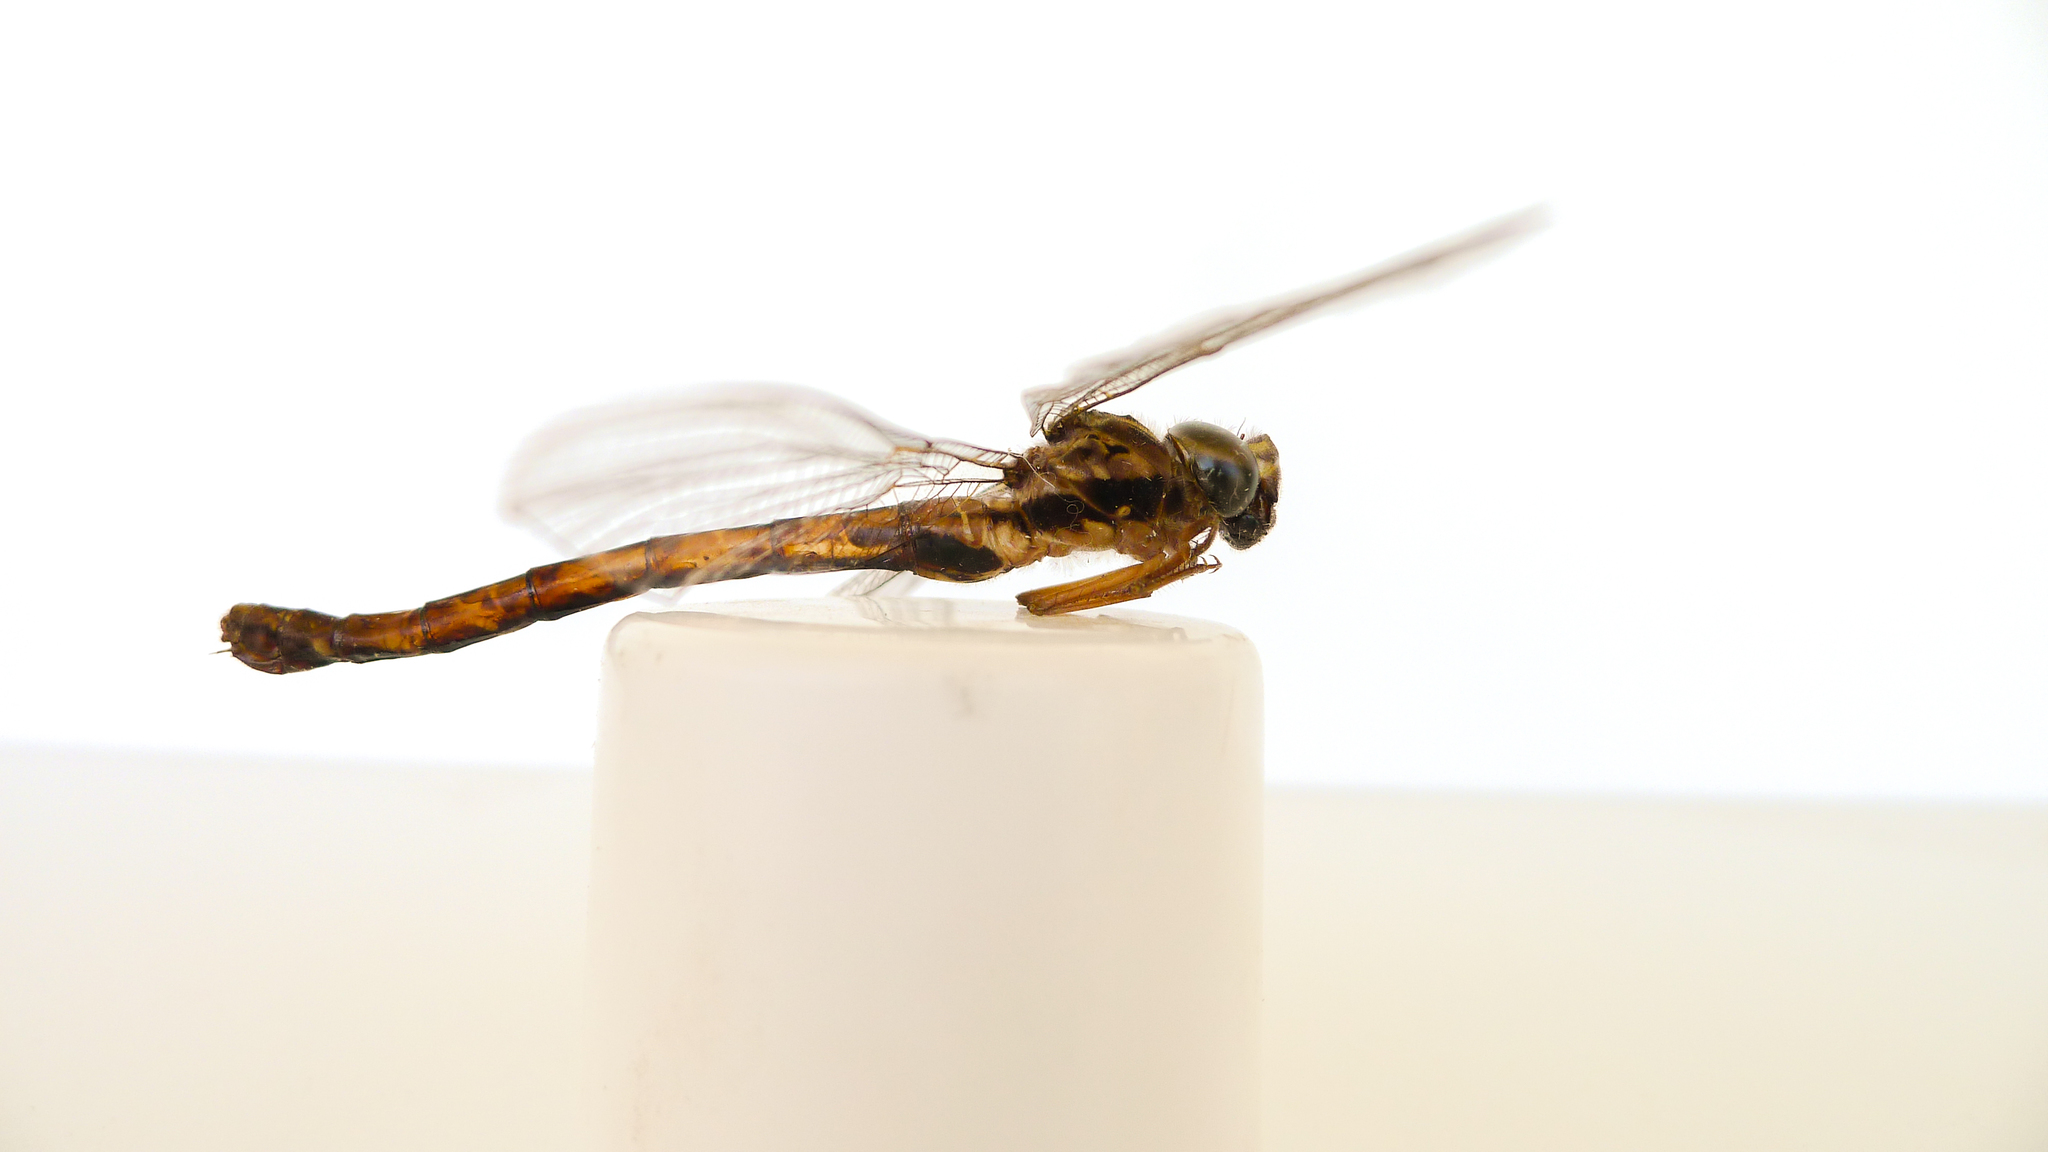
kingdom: Animalia
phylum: Arthropoda
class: Insecta
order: Odonata
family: Aeshnidae
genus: Acanthaeschna
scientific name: Acanthaeschna victoria
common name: Thylacine darner
